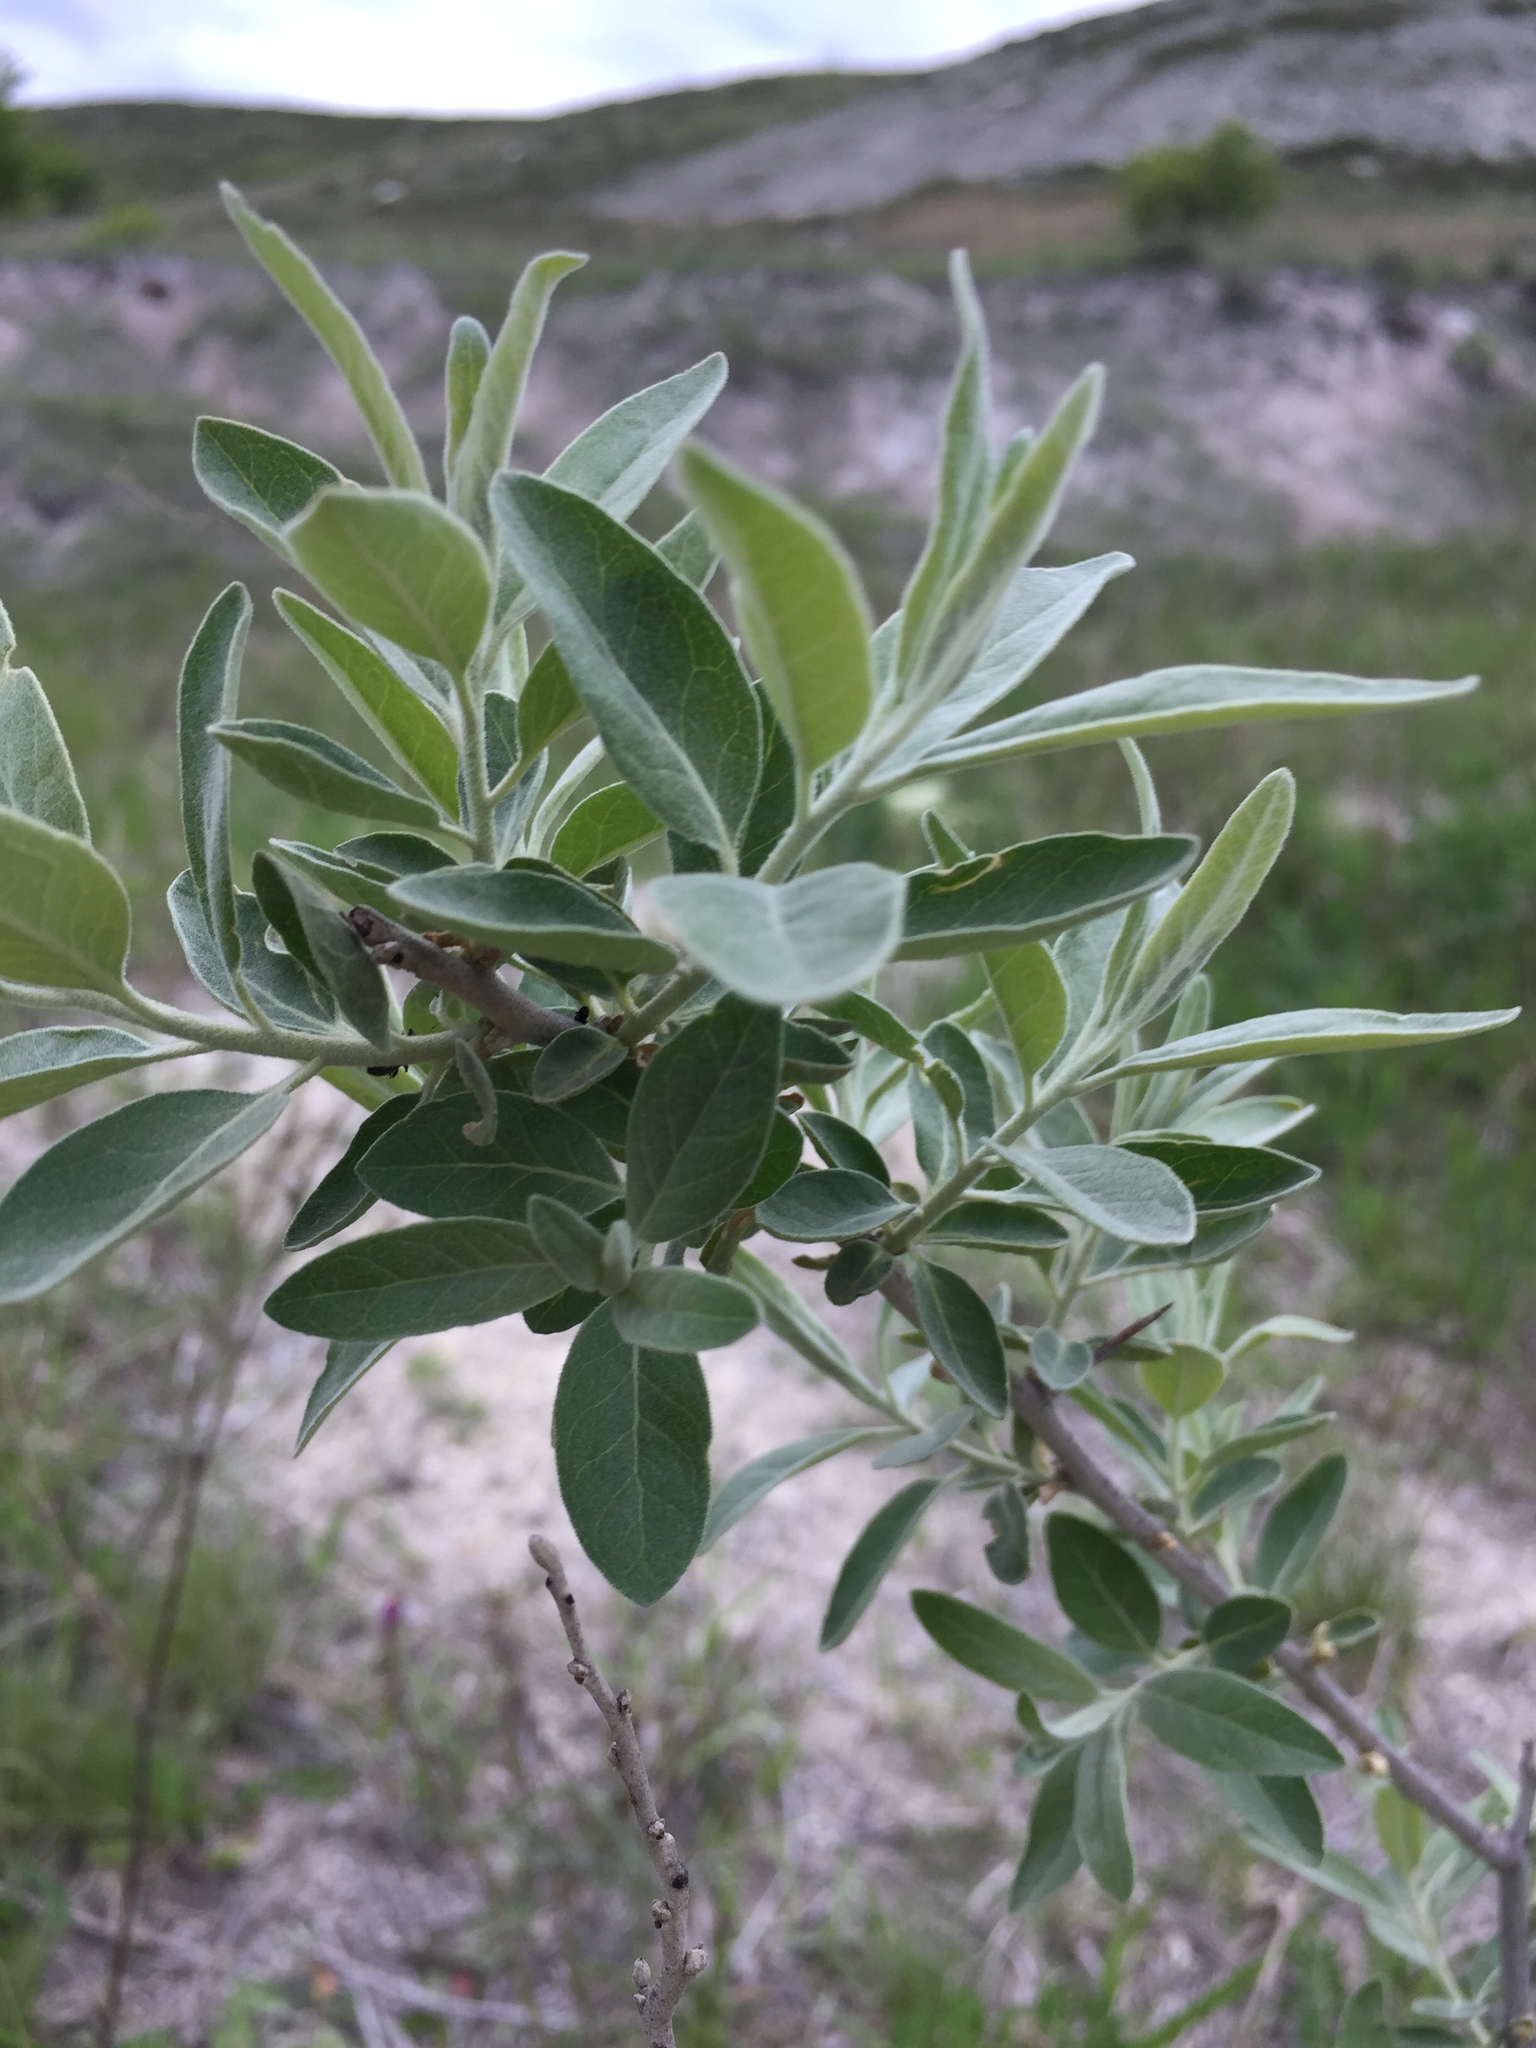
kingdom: Plantae
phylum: Tracheophyta
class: Magnoliopsida
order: Rosales
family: Elaeagnaceae
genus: Elaeagnus
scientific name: Elaeagnus angustifolia
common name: Russian olive
